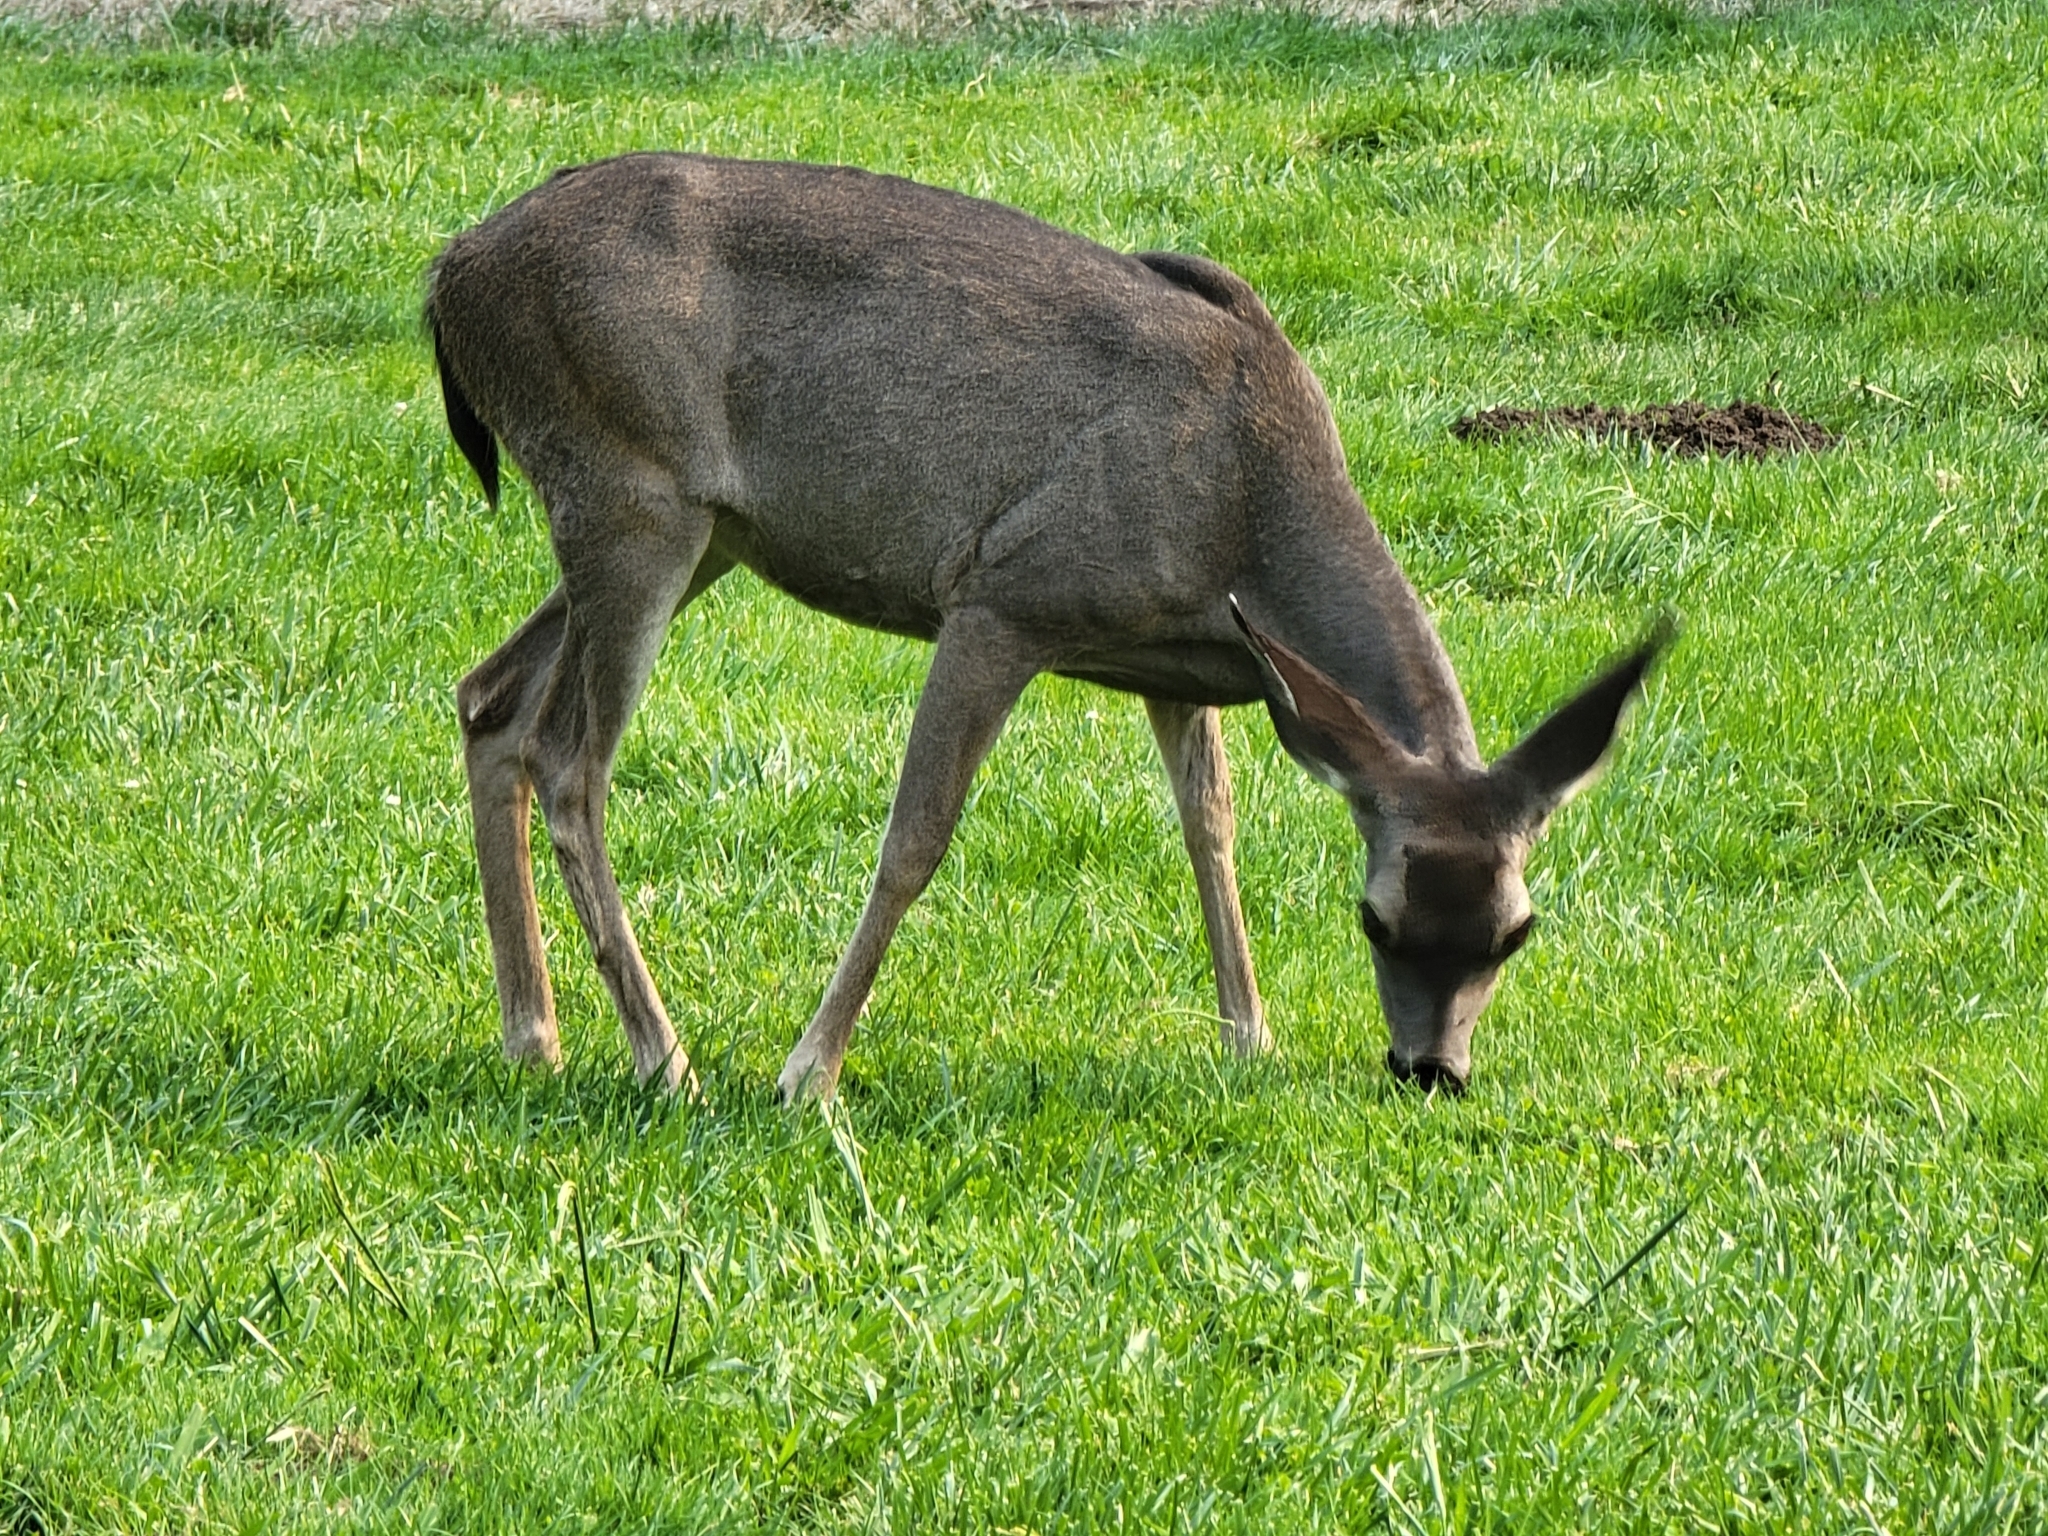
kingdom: Animalia
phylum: Chordata
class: Mammalia
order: Artiodactyla
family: Cervidae
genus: Odocoileus
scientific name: Odocoileus hemionus
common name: Mule deer
